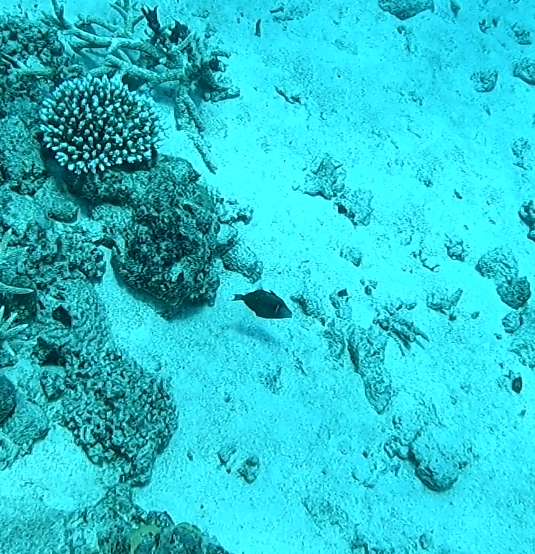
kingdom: Animalia
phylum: Chordata
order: Tetraodontiformes
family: Balistidae
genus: Sufflamen
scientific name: Sufflamen chrysopterum
